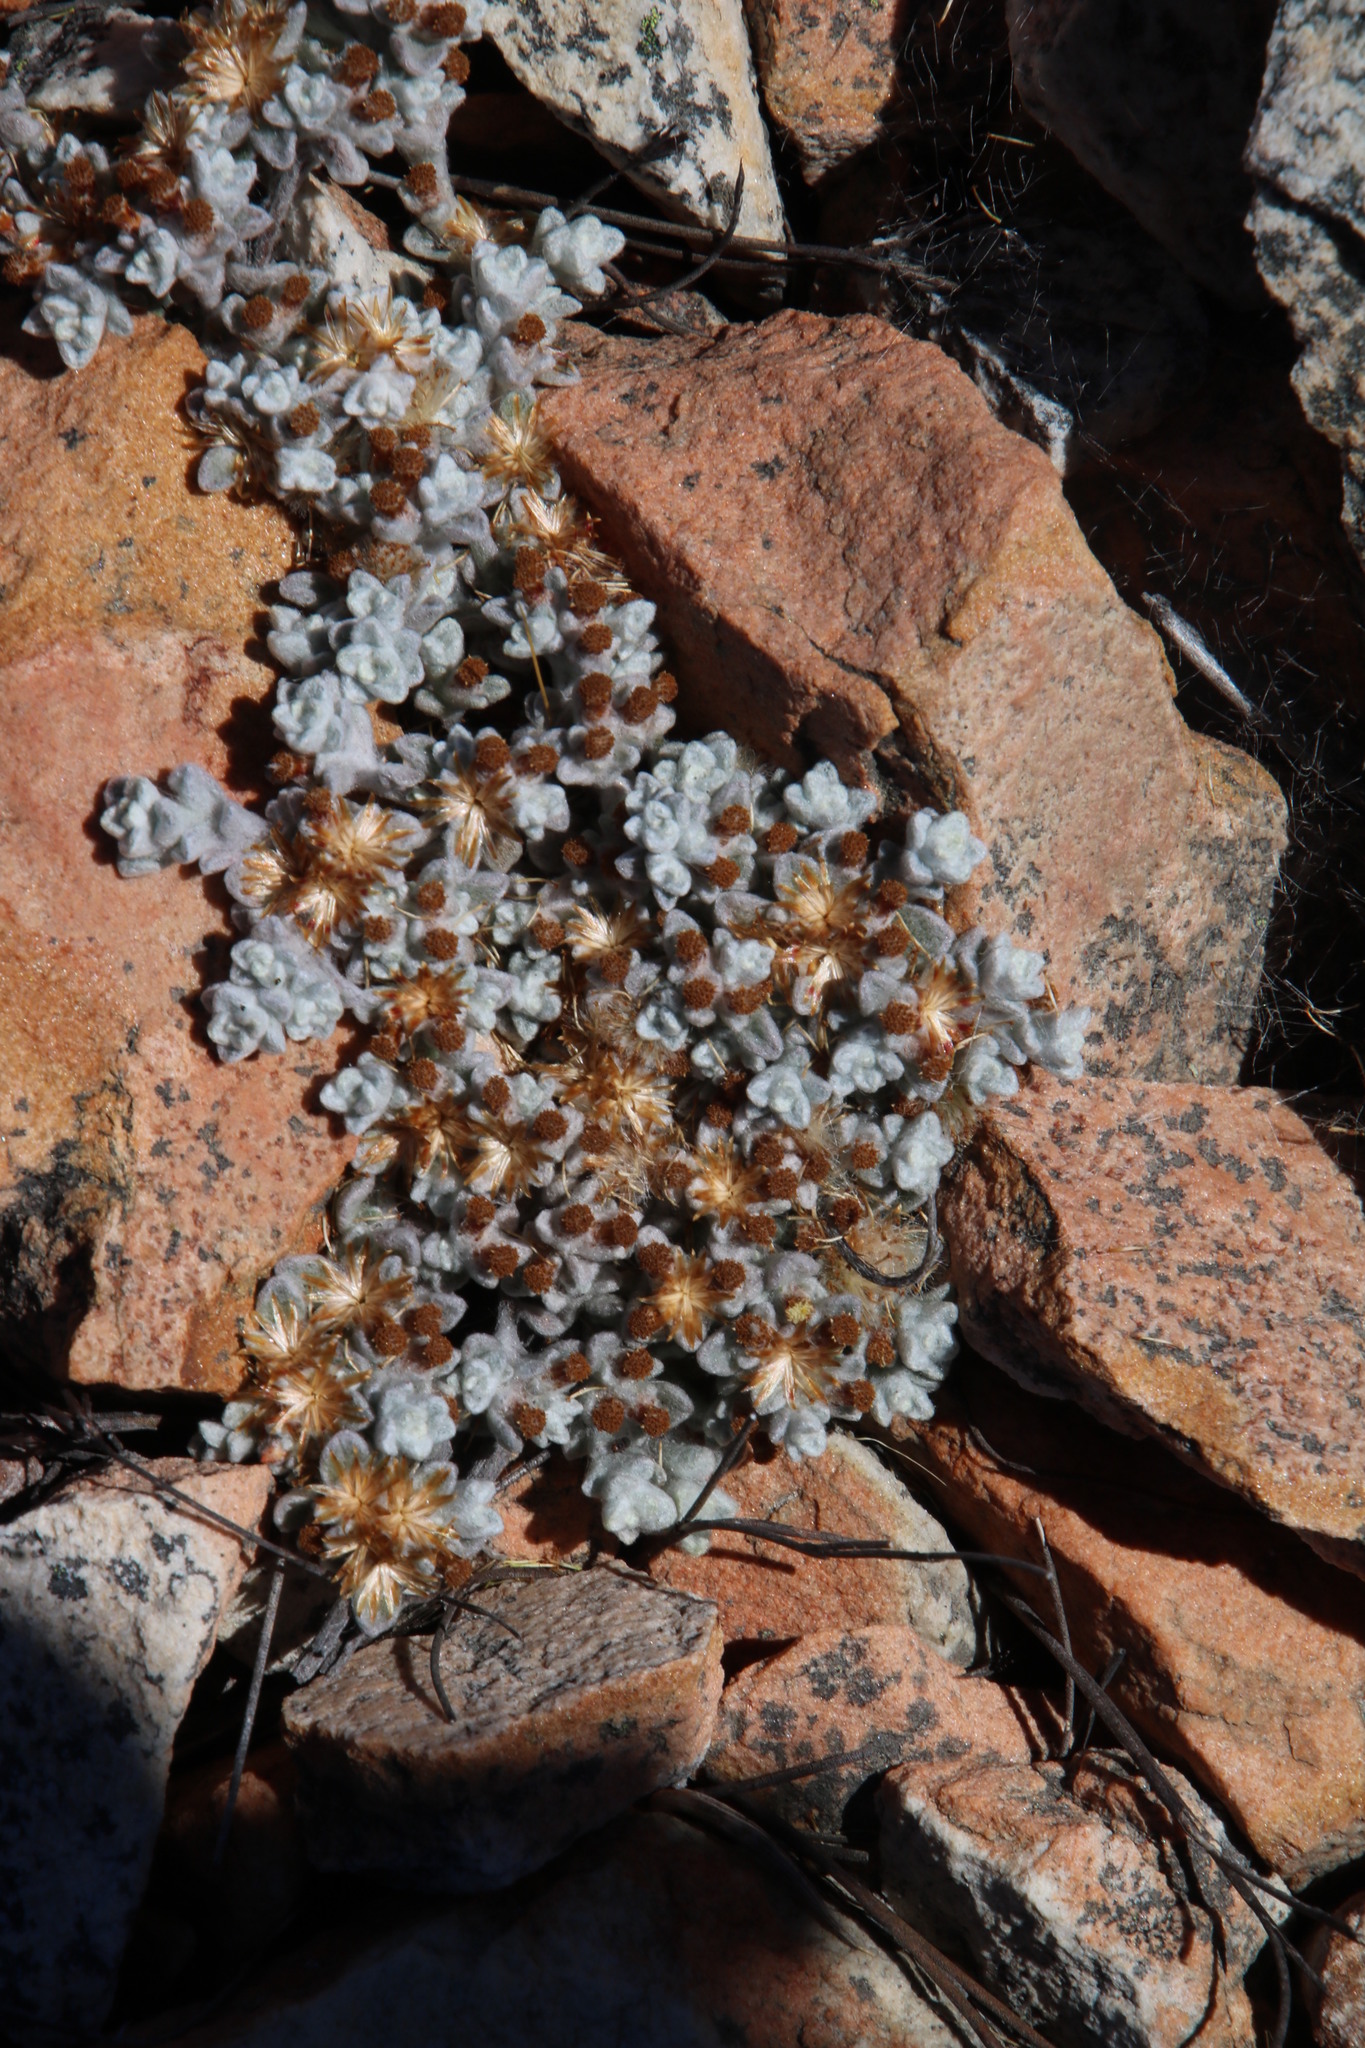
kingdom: Plantae
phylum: Tracheophyta
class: Magnoliopsida
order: Asterales
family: Asteraceae
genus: Helichrysum
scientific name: Helichrysum zwartbergense
